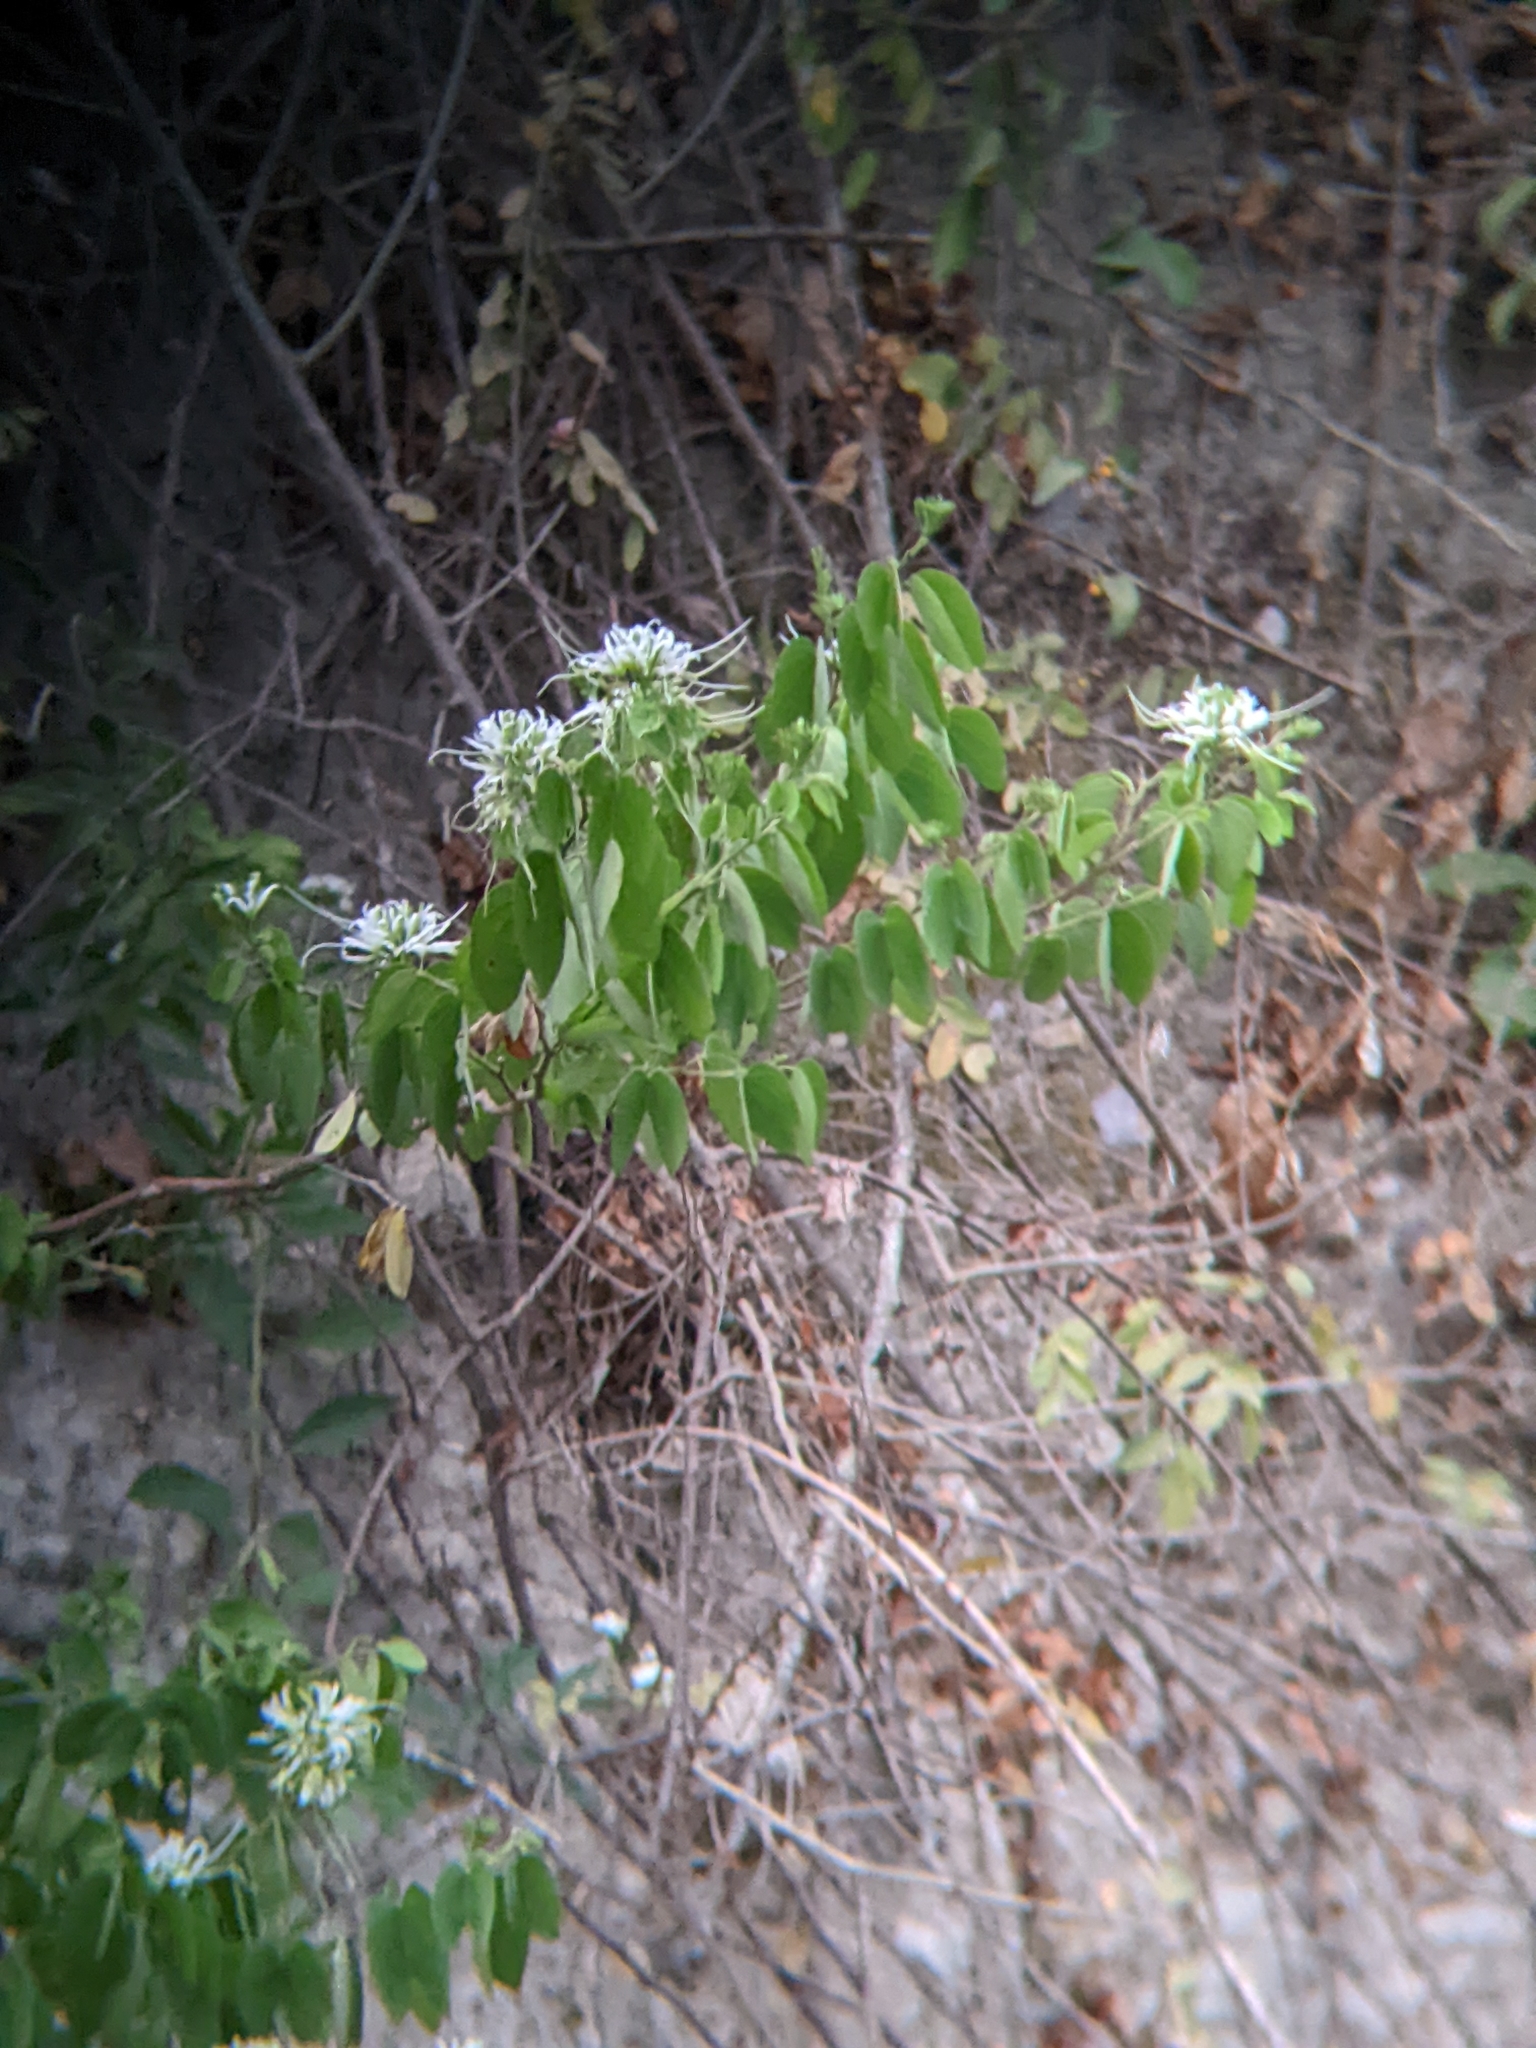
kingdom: Plantae
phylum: Tracheophyta
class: Magnoliopsida
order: Fabales
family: Fabaceae
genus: Bauhinia
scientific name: Bauhinia divaricata
